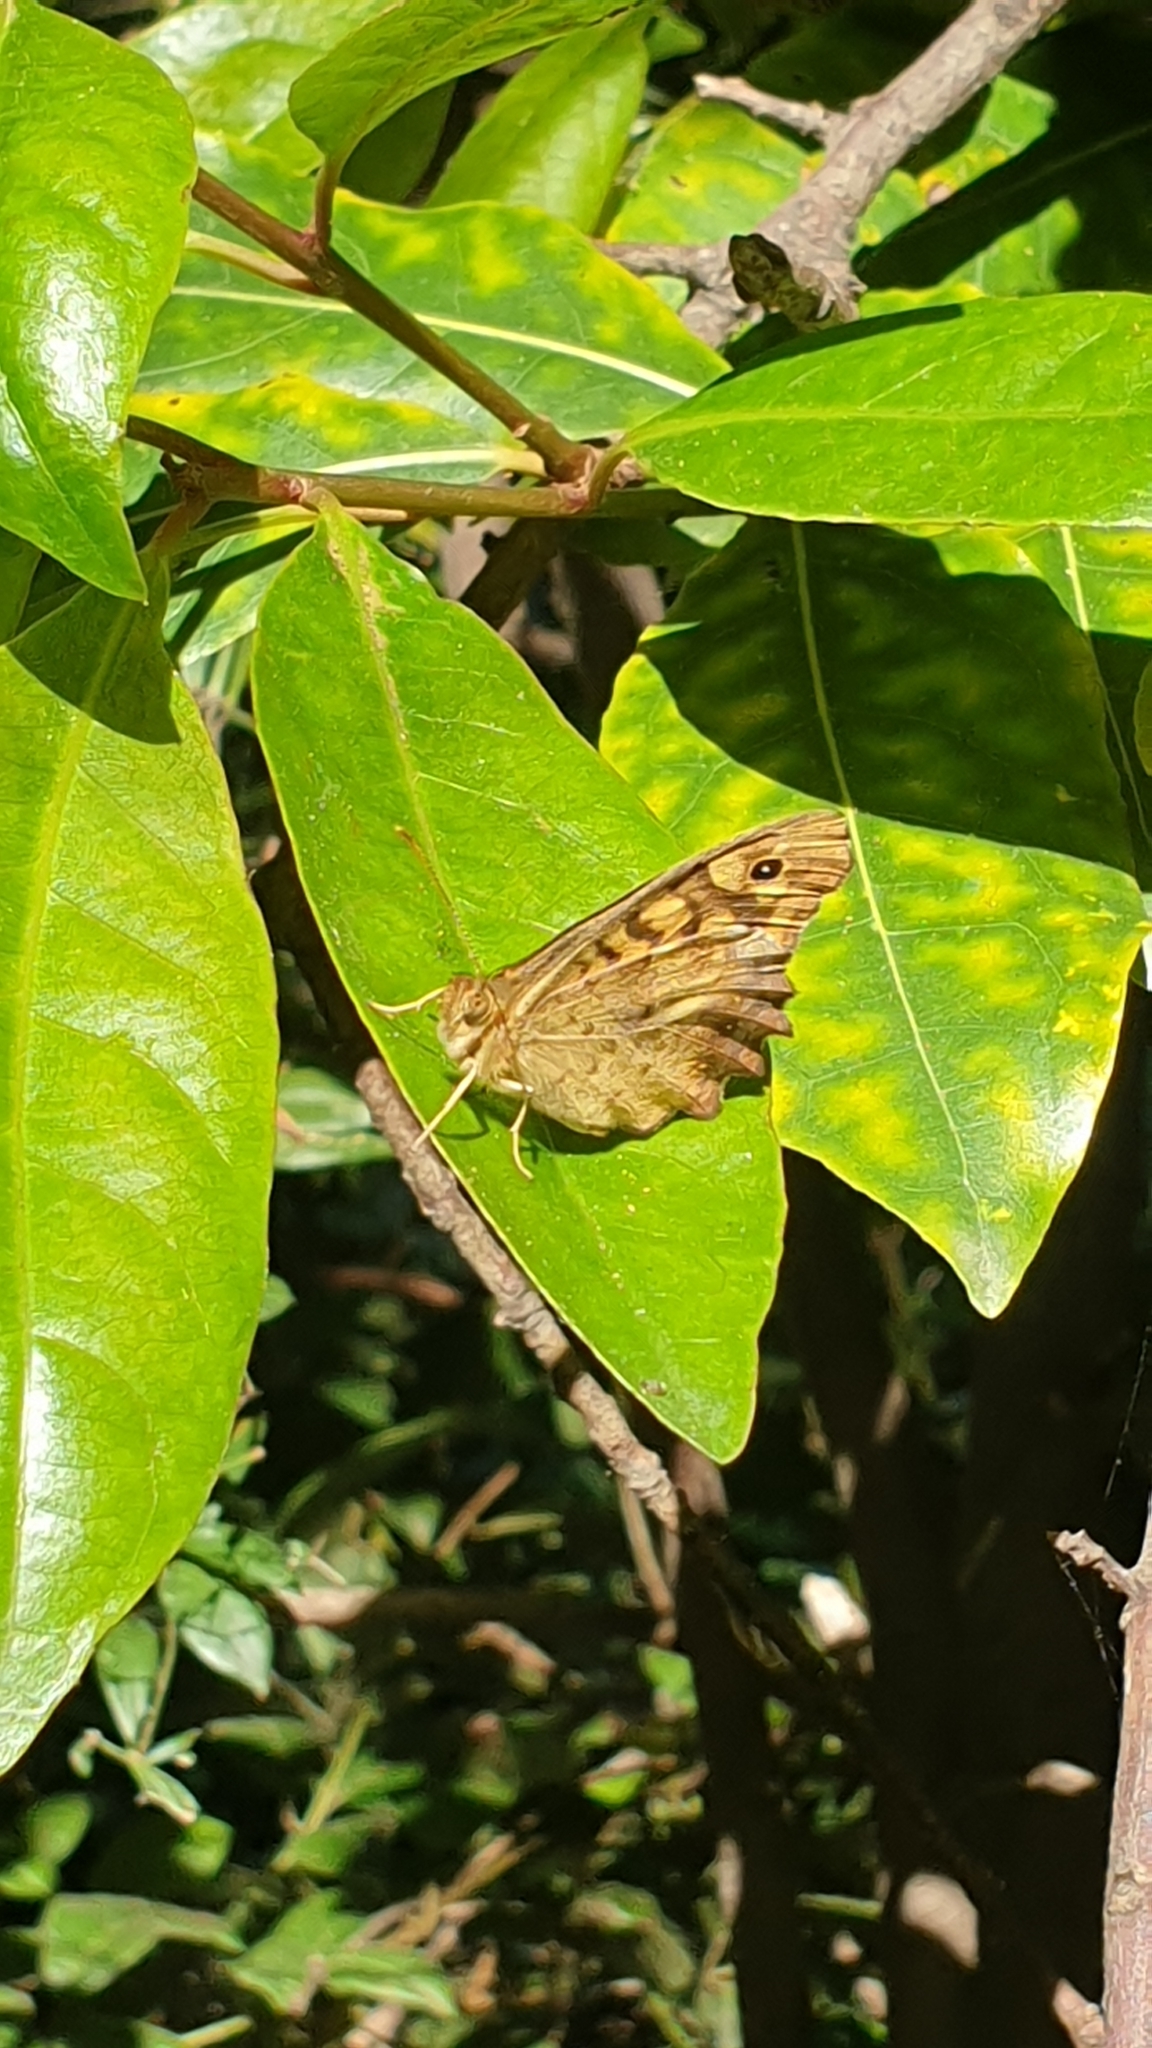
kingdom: Animalia
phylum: Arthropoda
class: Insecta
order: Lepidoptera
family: Nymphalidae
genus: Pararge
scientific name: Pararge aegeria
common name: Speckled wood
